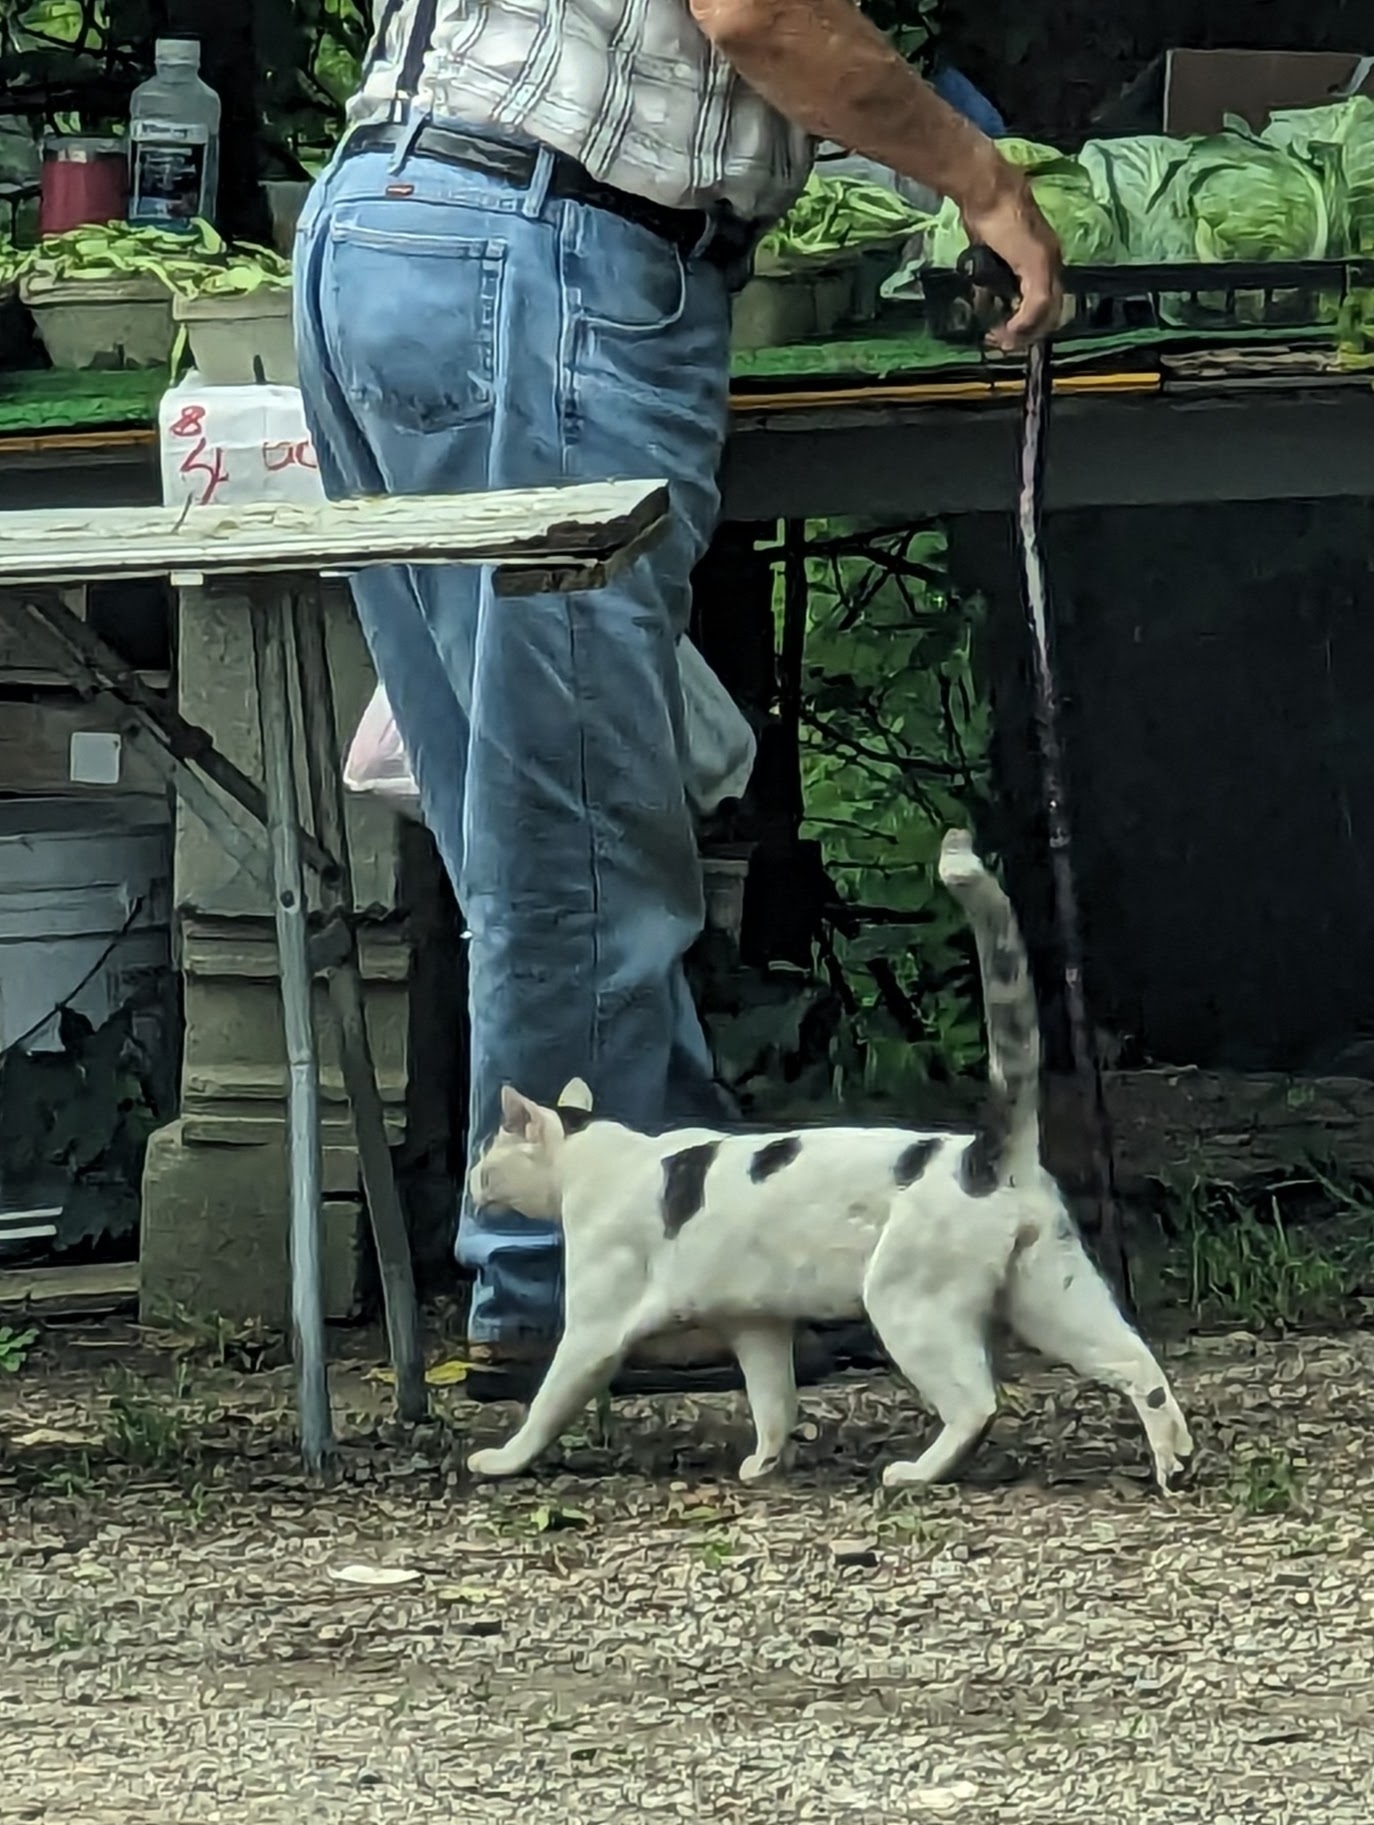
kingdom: Animalia
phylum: Chordata
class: Mammalia
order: Carnivora
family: Felidae
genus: Felis
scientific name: Felis catus
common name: Domestic cat
